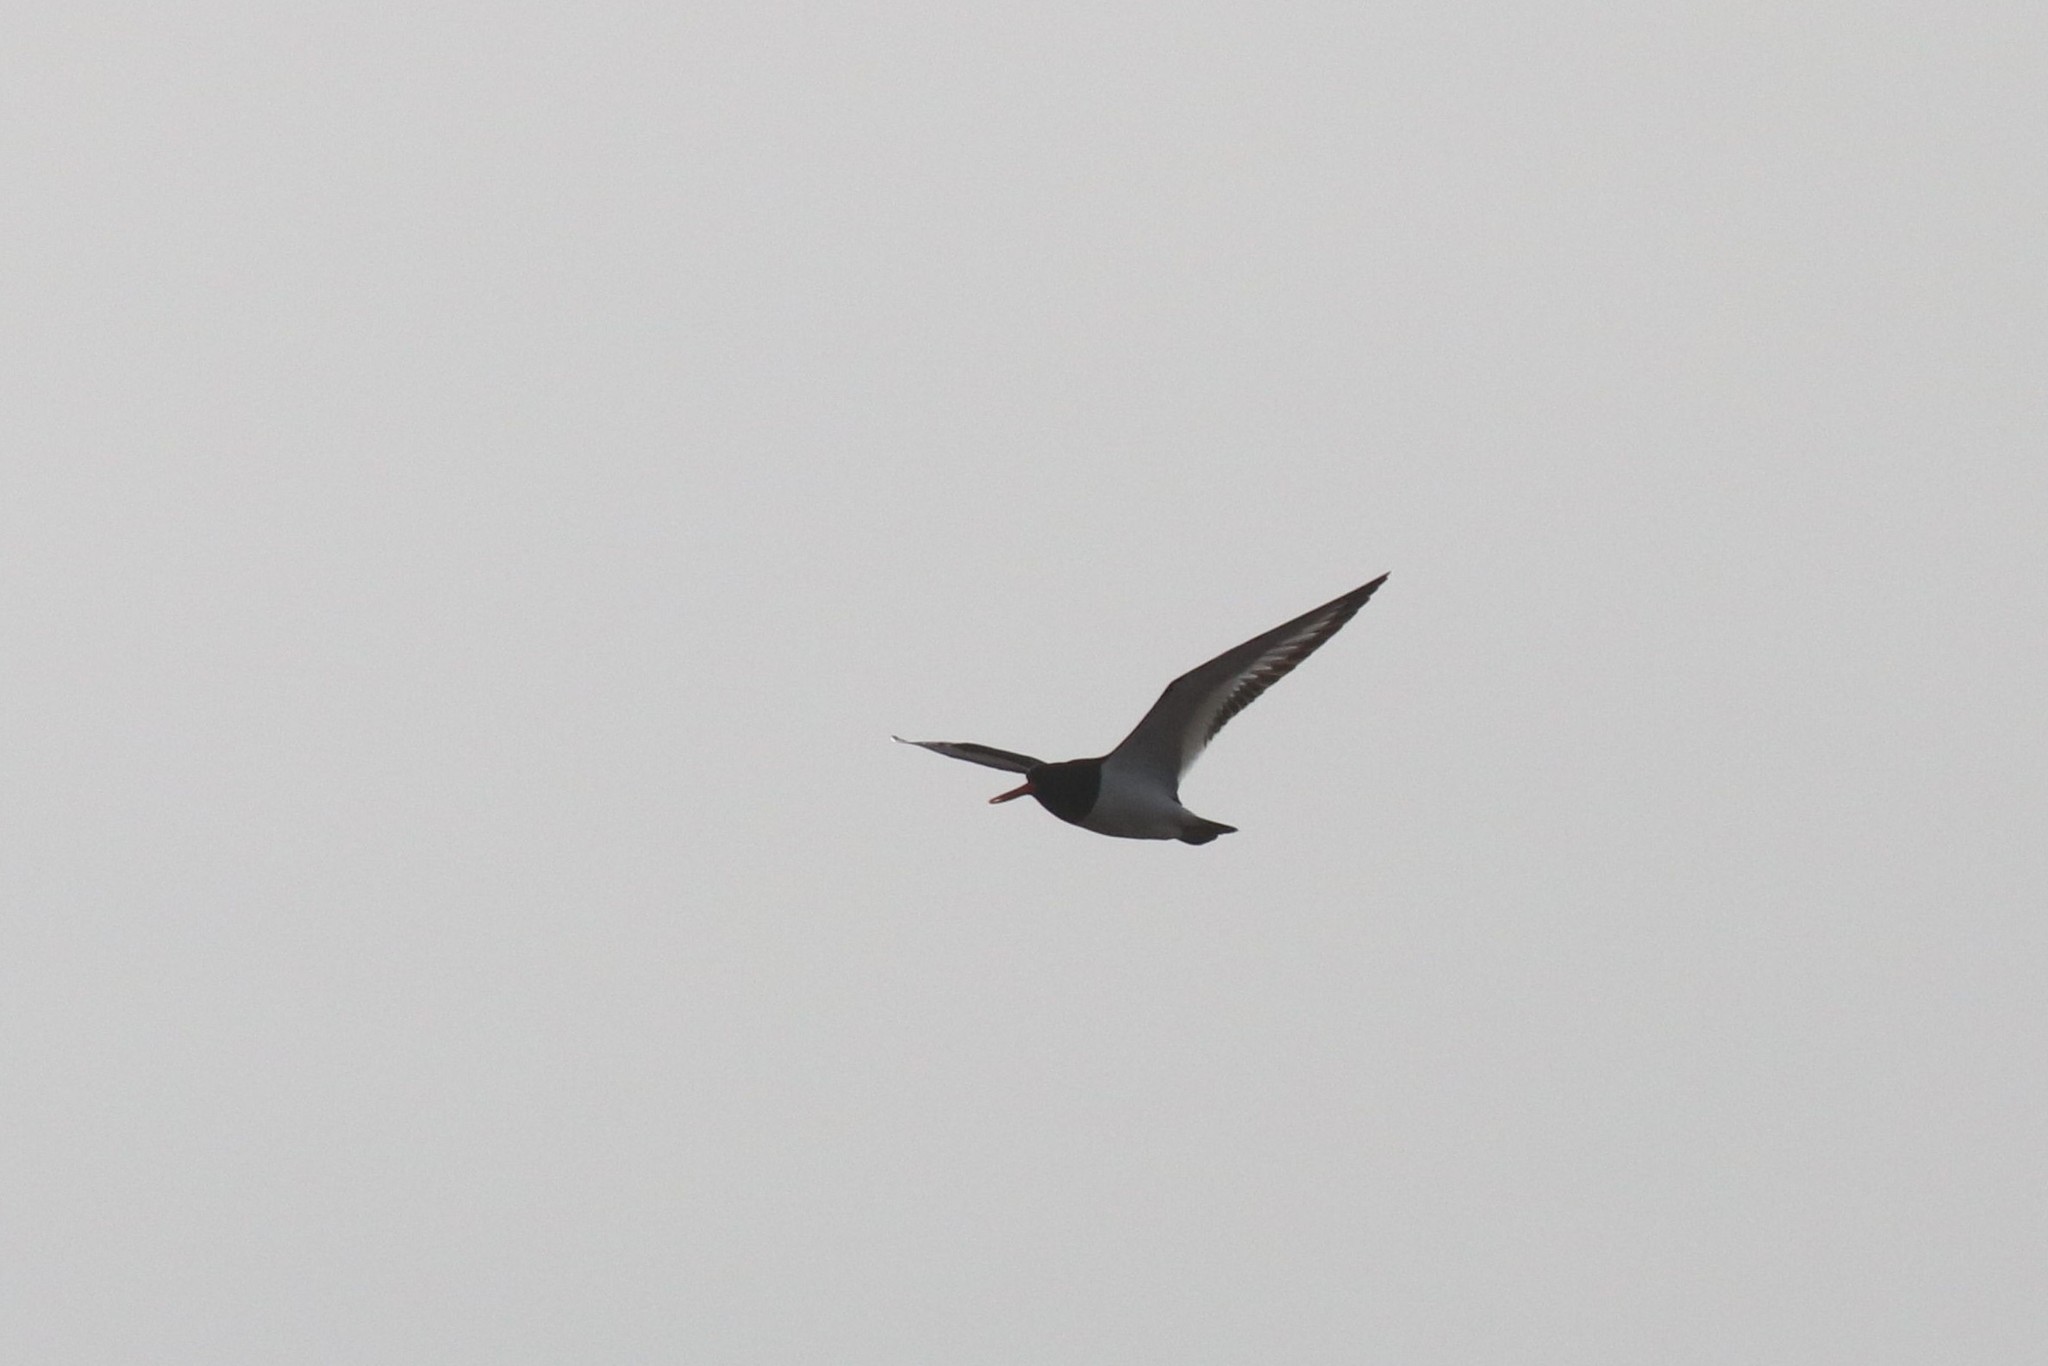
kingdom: Animalia
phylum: Chordata
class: Aves
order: Charadriiformes
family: Haematopodidae
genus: Haematopus
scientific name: Haematopus ostralegus
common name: Eurasian oystercatcher
